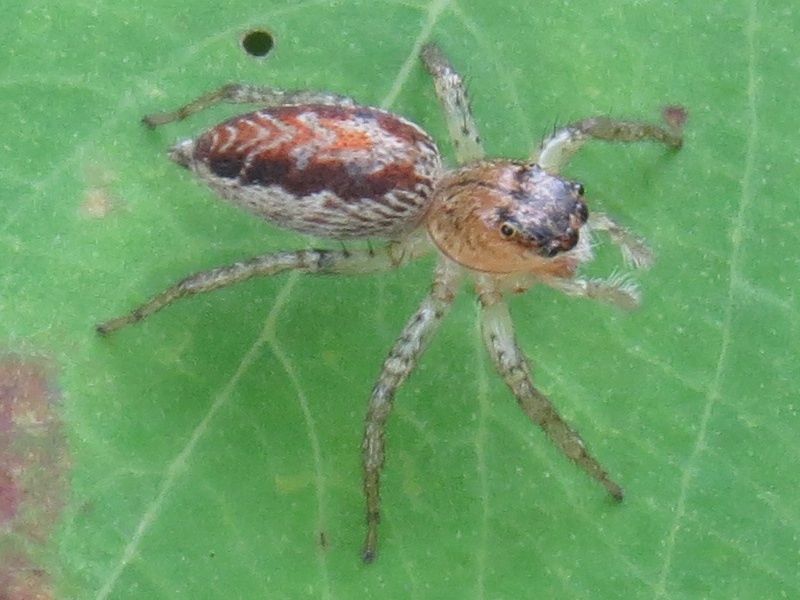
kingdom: Animalia
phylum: Arthropoda
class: Arachnida
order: Araneae
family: Salticidae
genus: Maevia
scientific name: Maevia inclemens
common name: Dimorphic jumper
